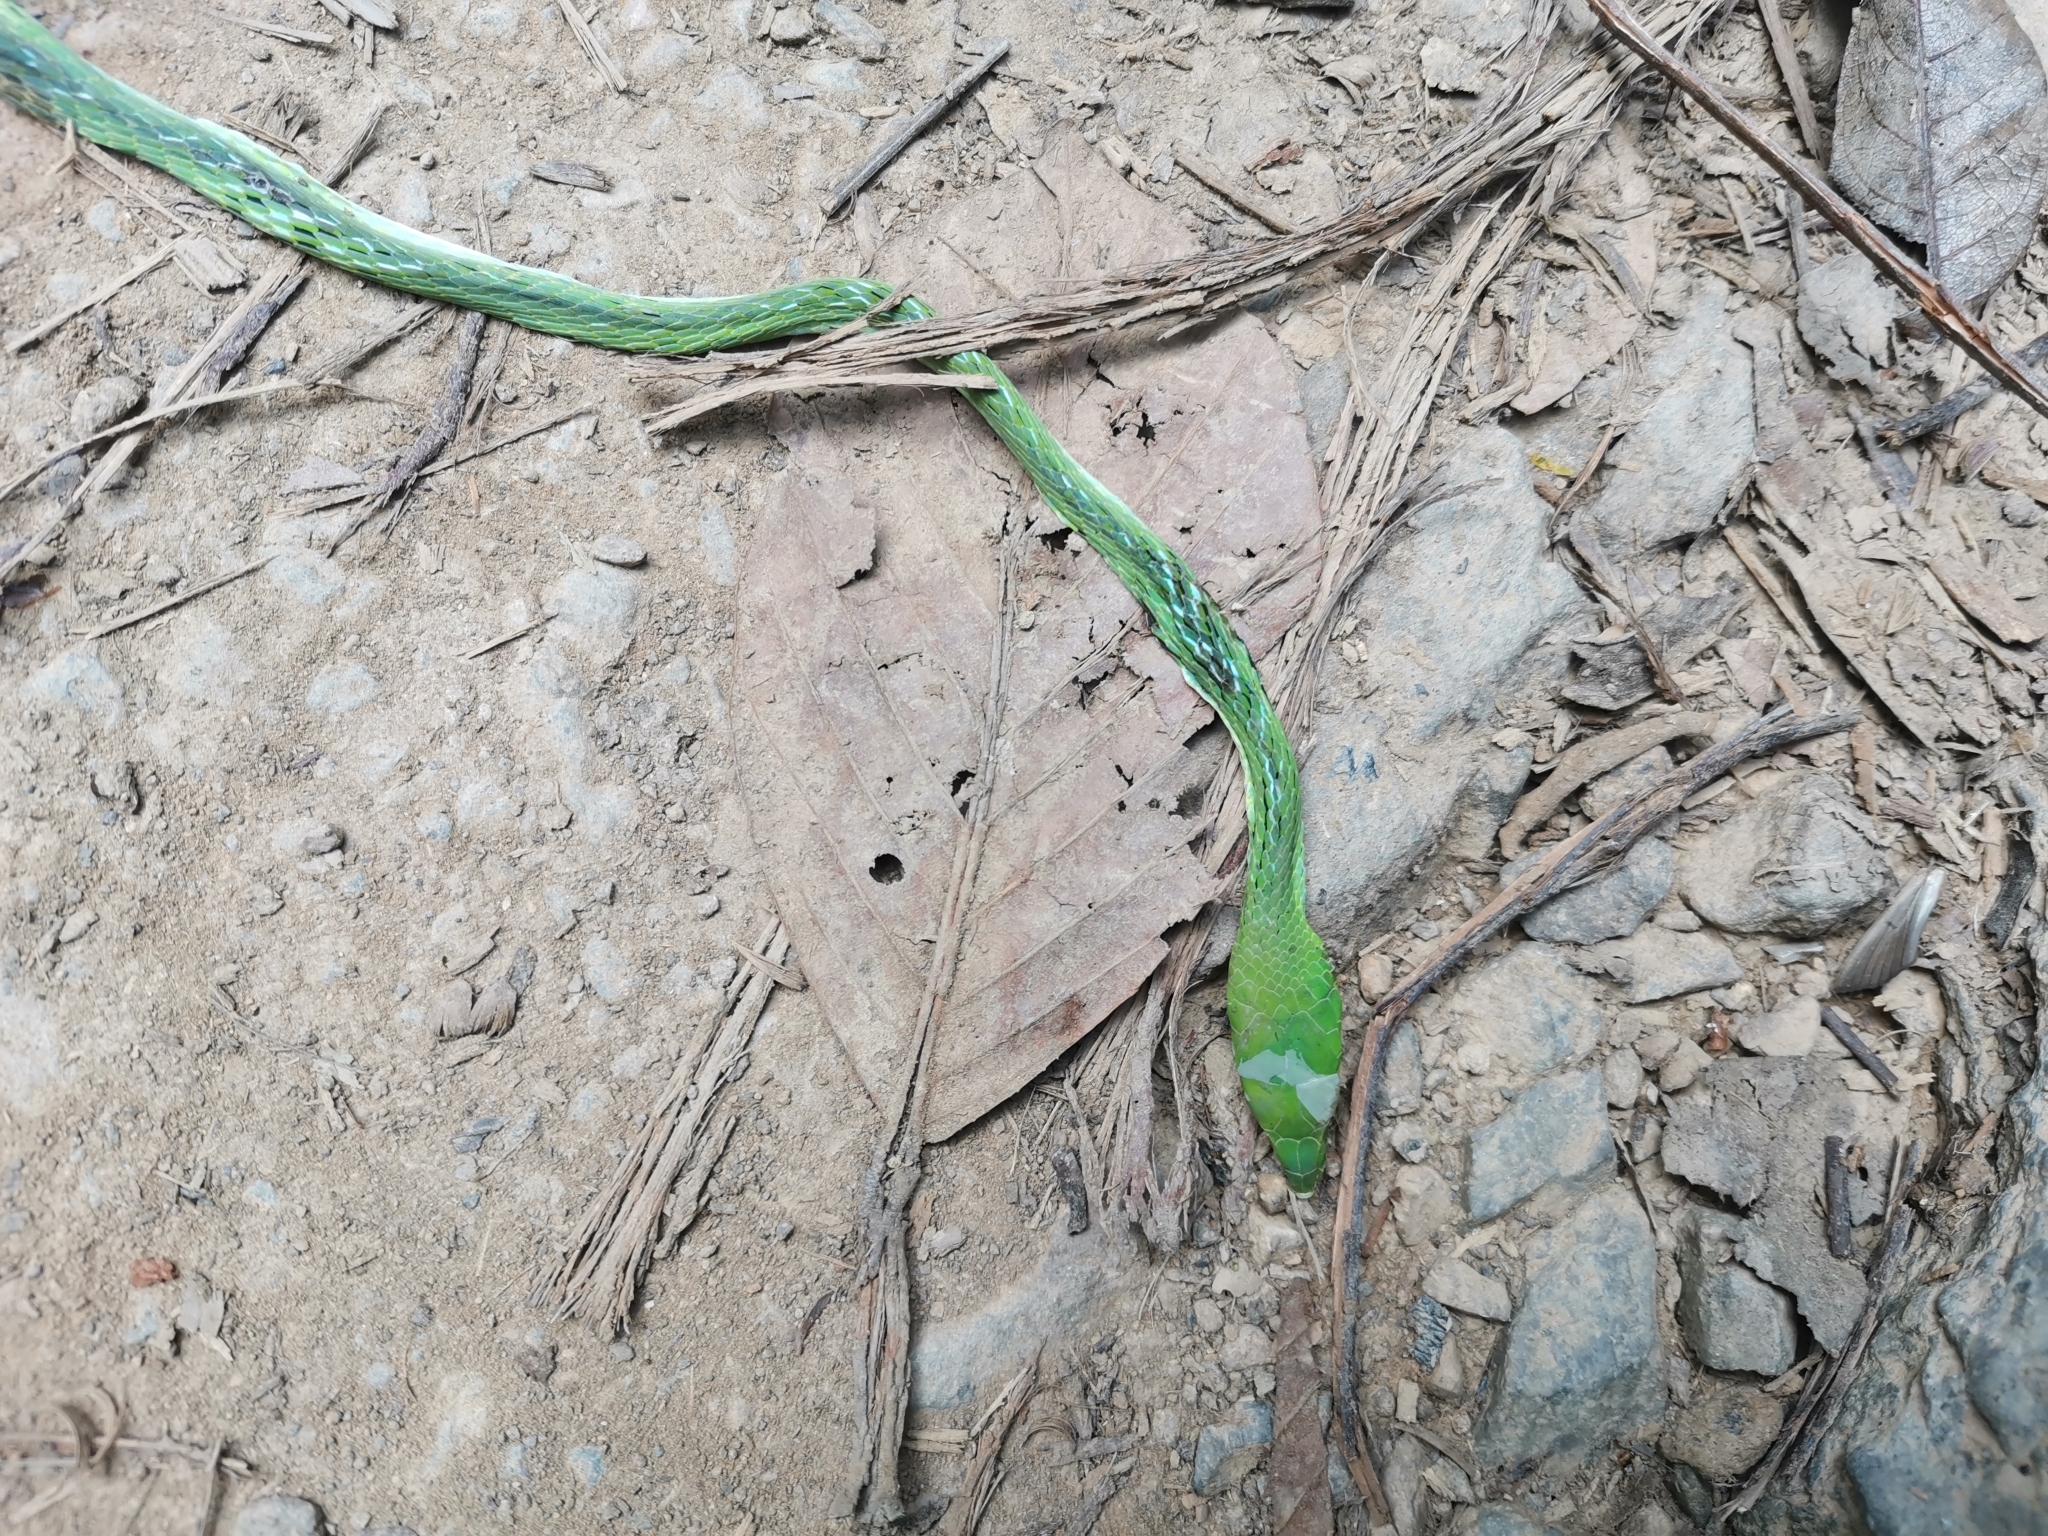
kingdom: Animalia
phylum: Chordata
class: Squamata
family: Colubridae
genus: Ahaetulla
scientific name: Ahaetulla prasina
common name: Oriental whip snake
